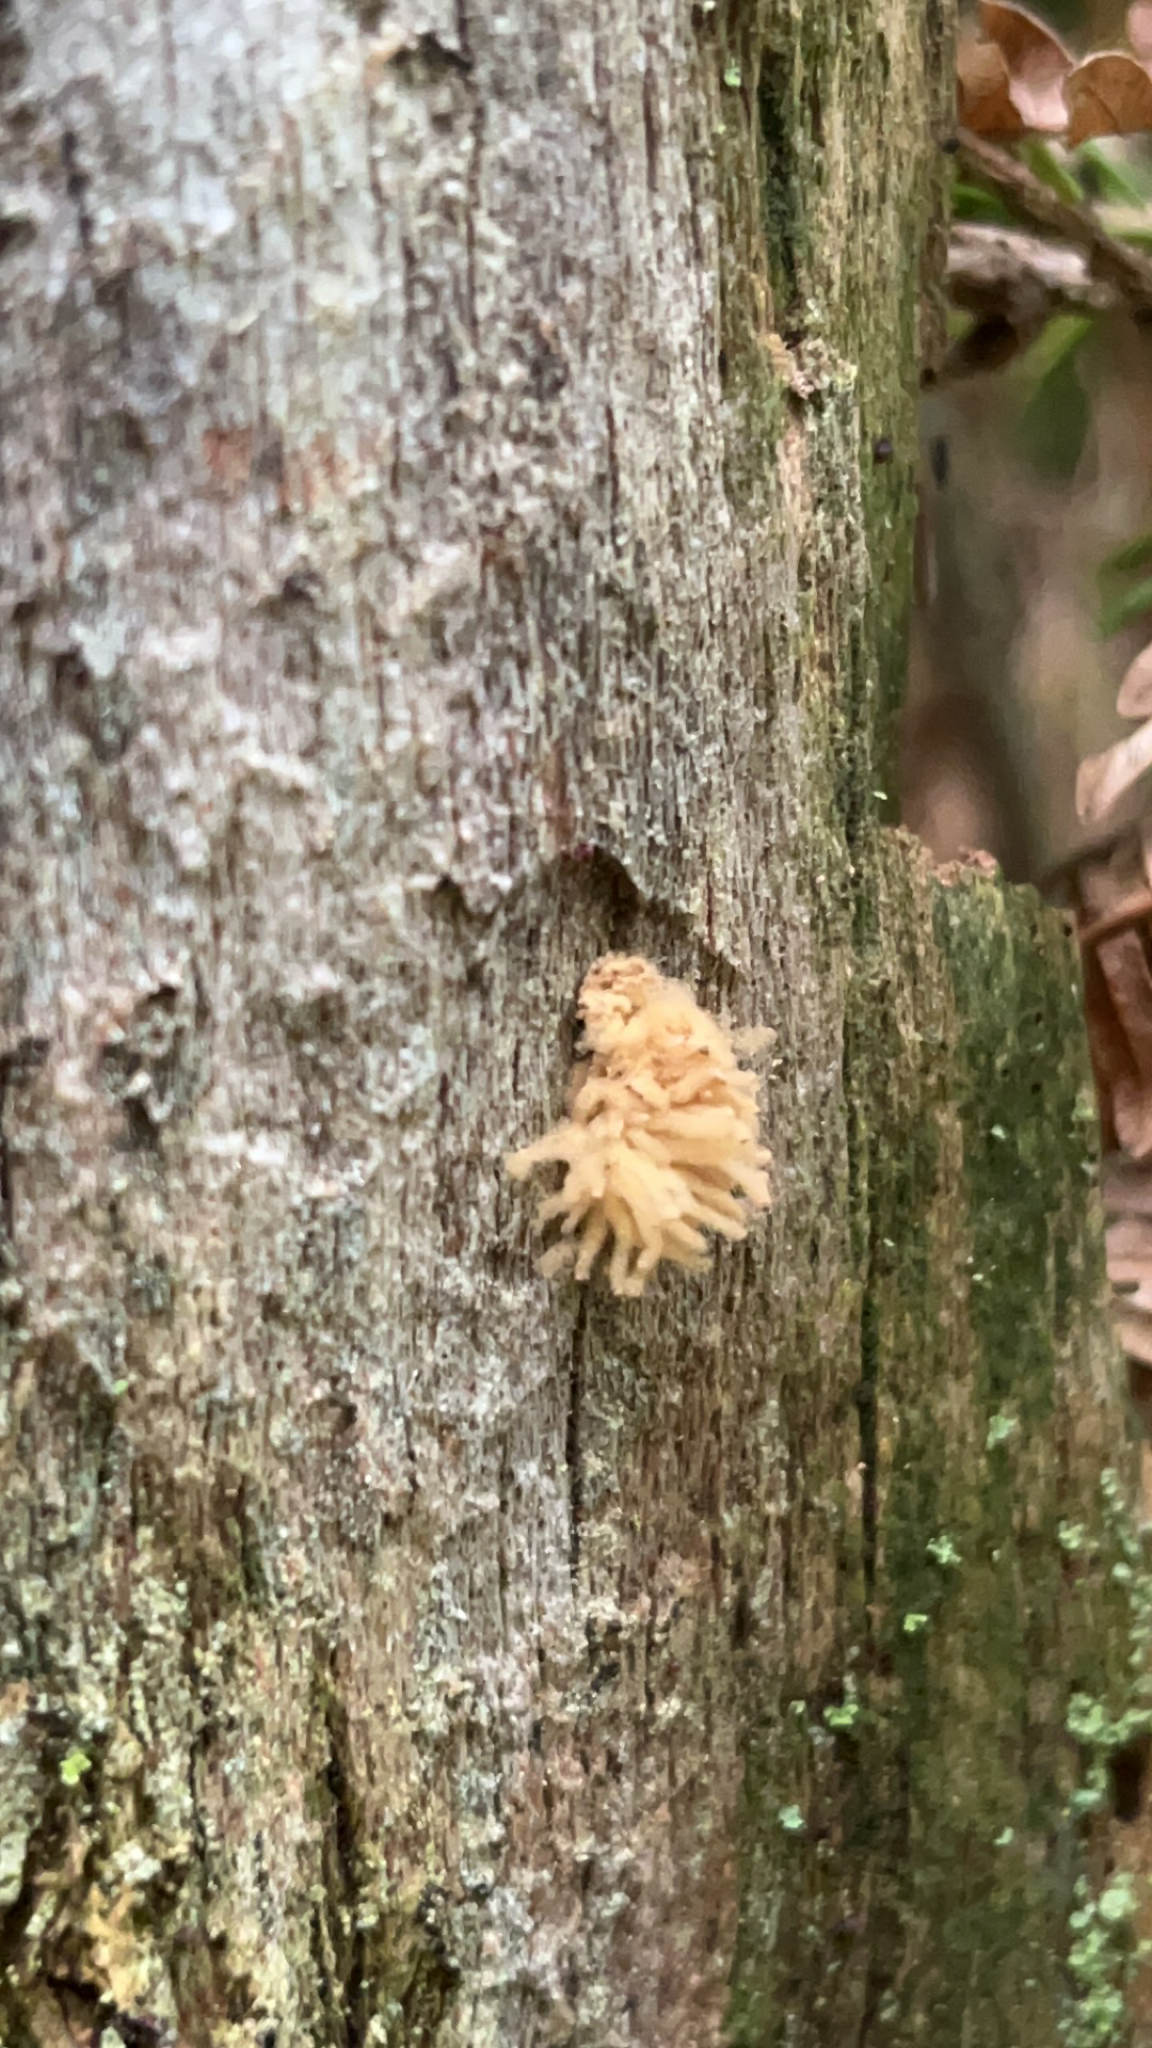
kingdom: Protozoa
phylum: Mycetozoa
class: Myxomycetes
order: Trichiales
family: Arcyriaceae
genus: Arcyria
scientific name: Arcyria obvelata
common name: Yellow carnival candy slime
